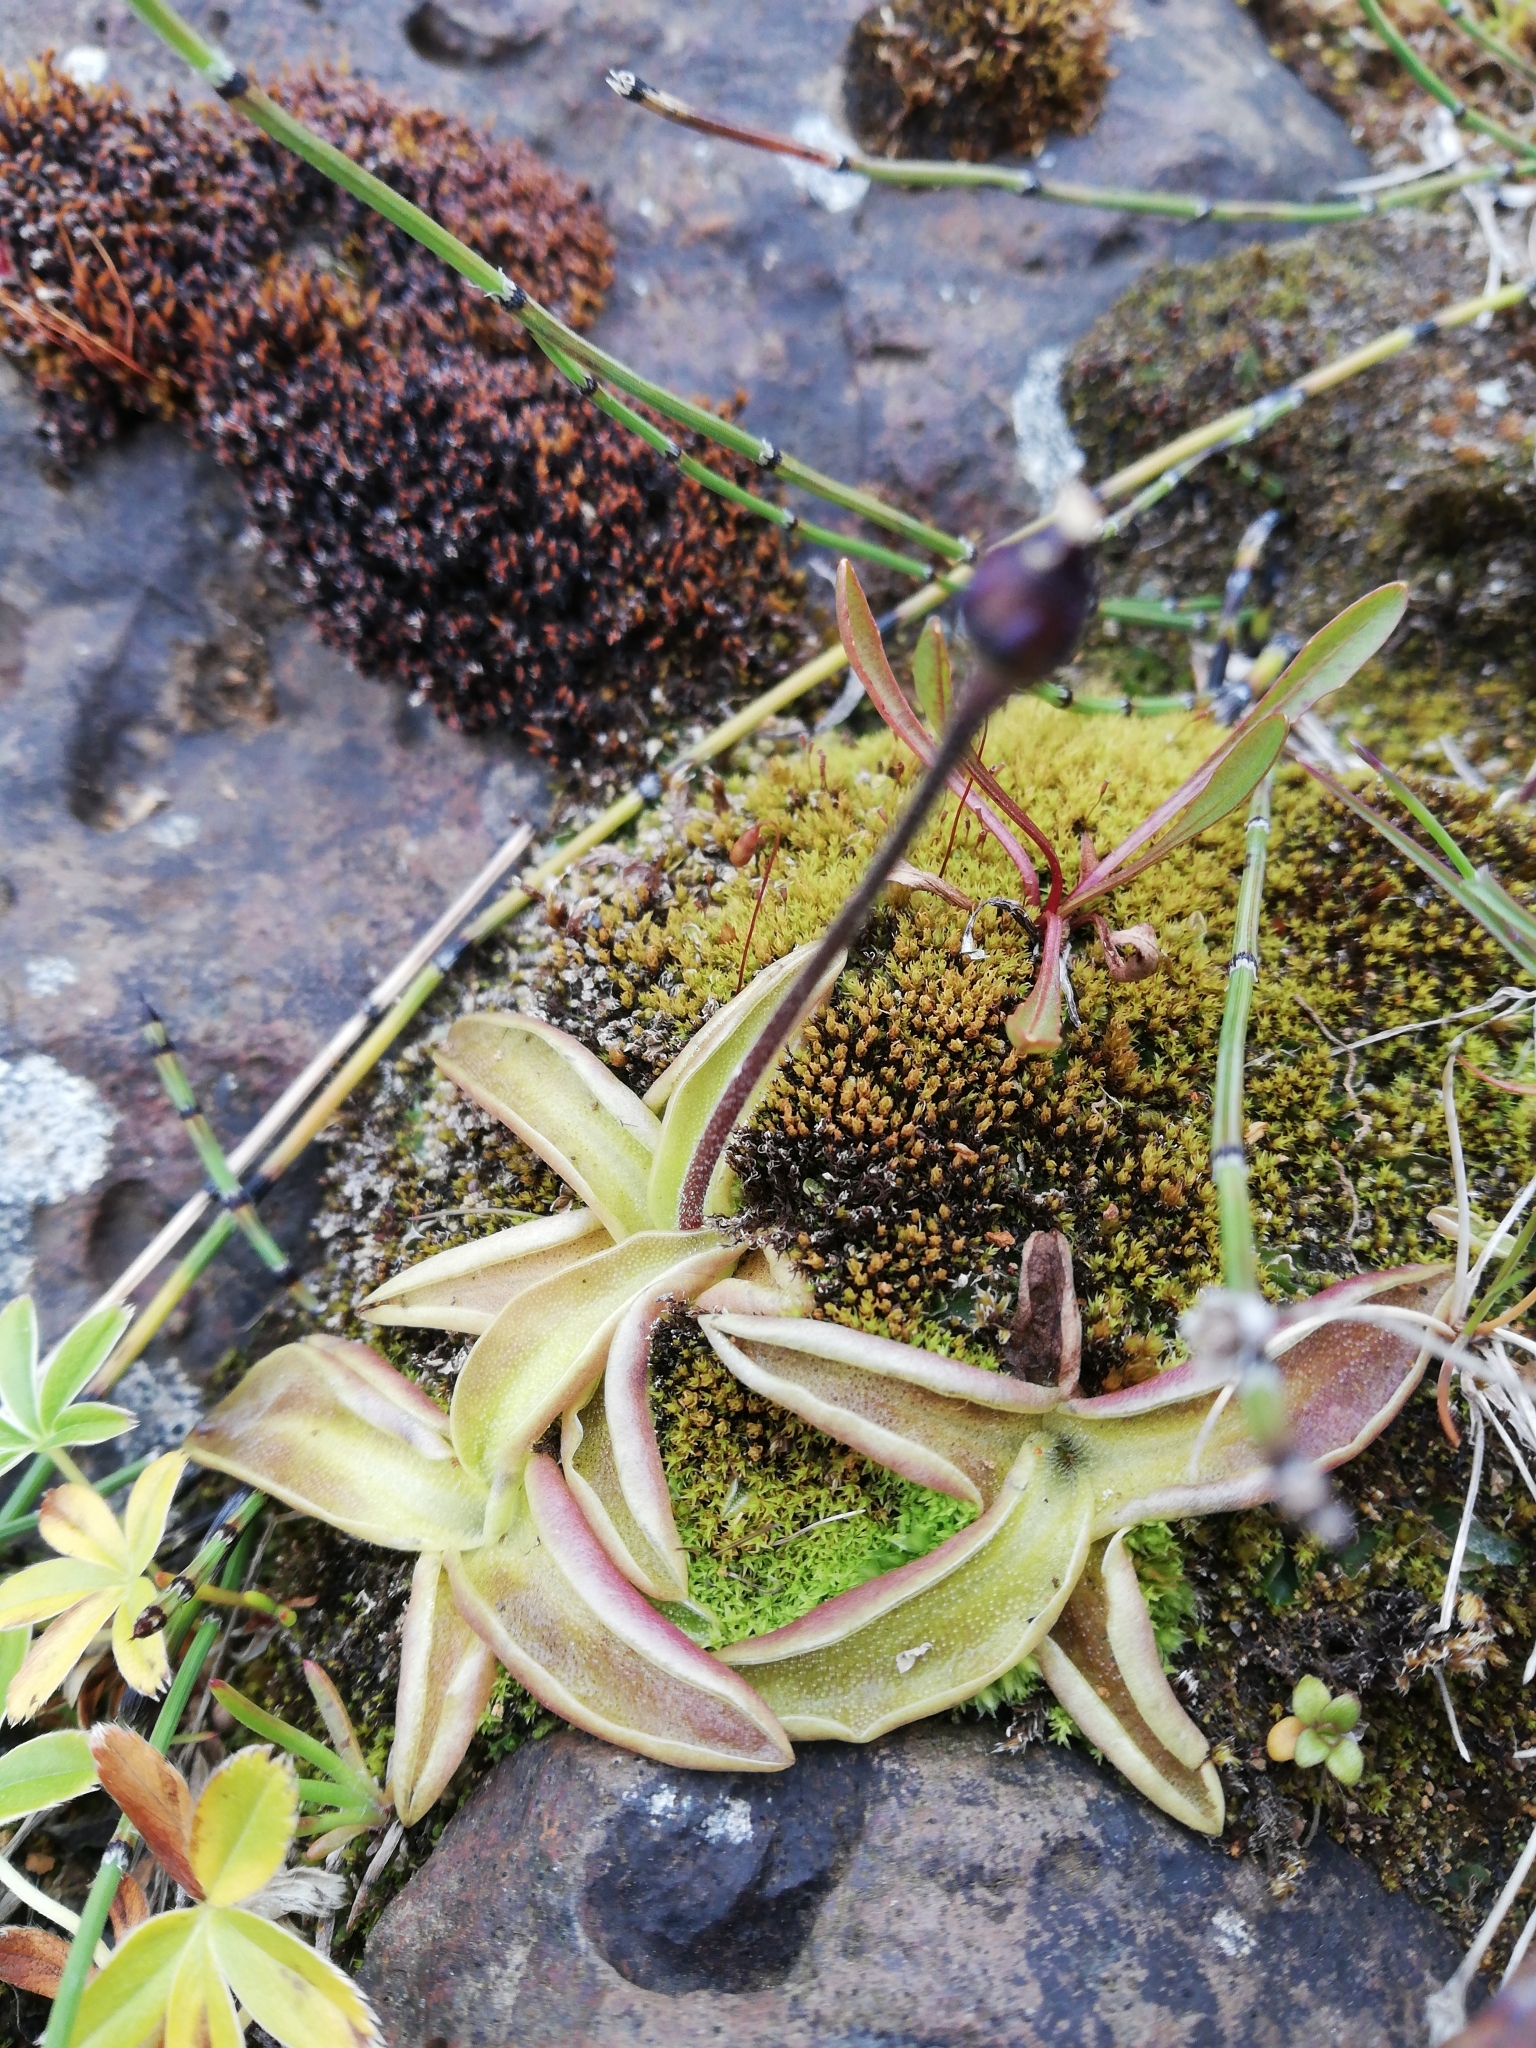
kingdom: Plantae
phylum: Tracheophyta
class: Magnoliopsida
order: Lamiales
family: Lentibulariaceae
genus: Pinguicula
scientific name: Pinguicula vulgaris
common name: Common butterwort
